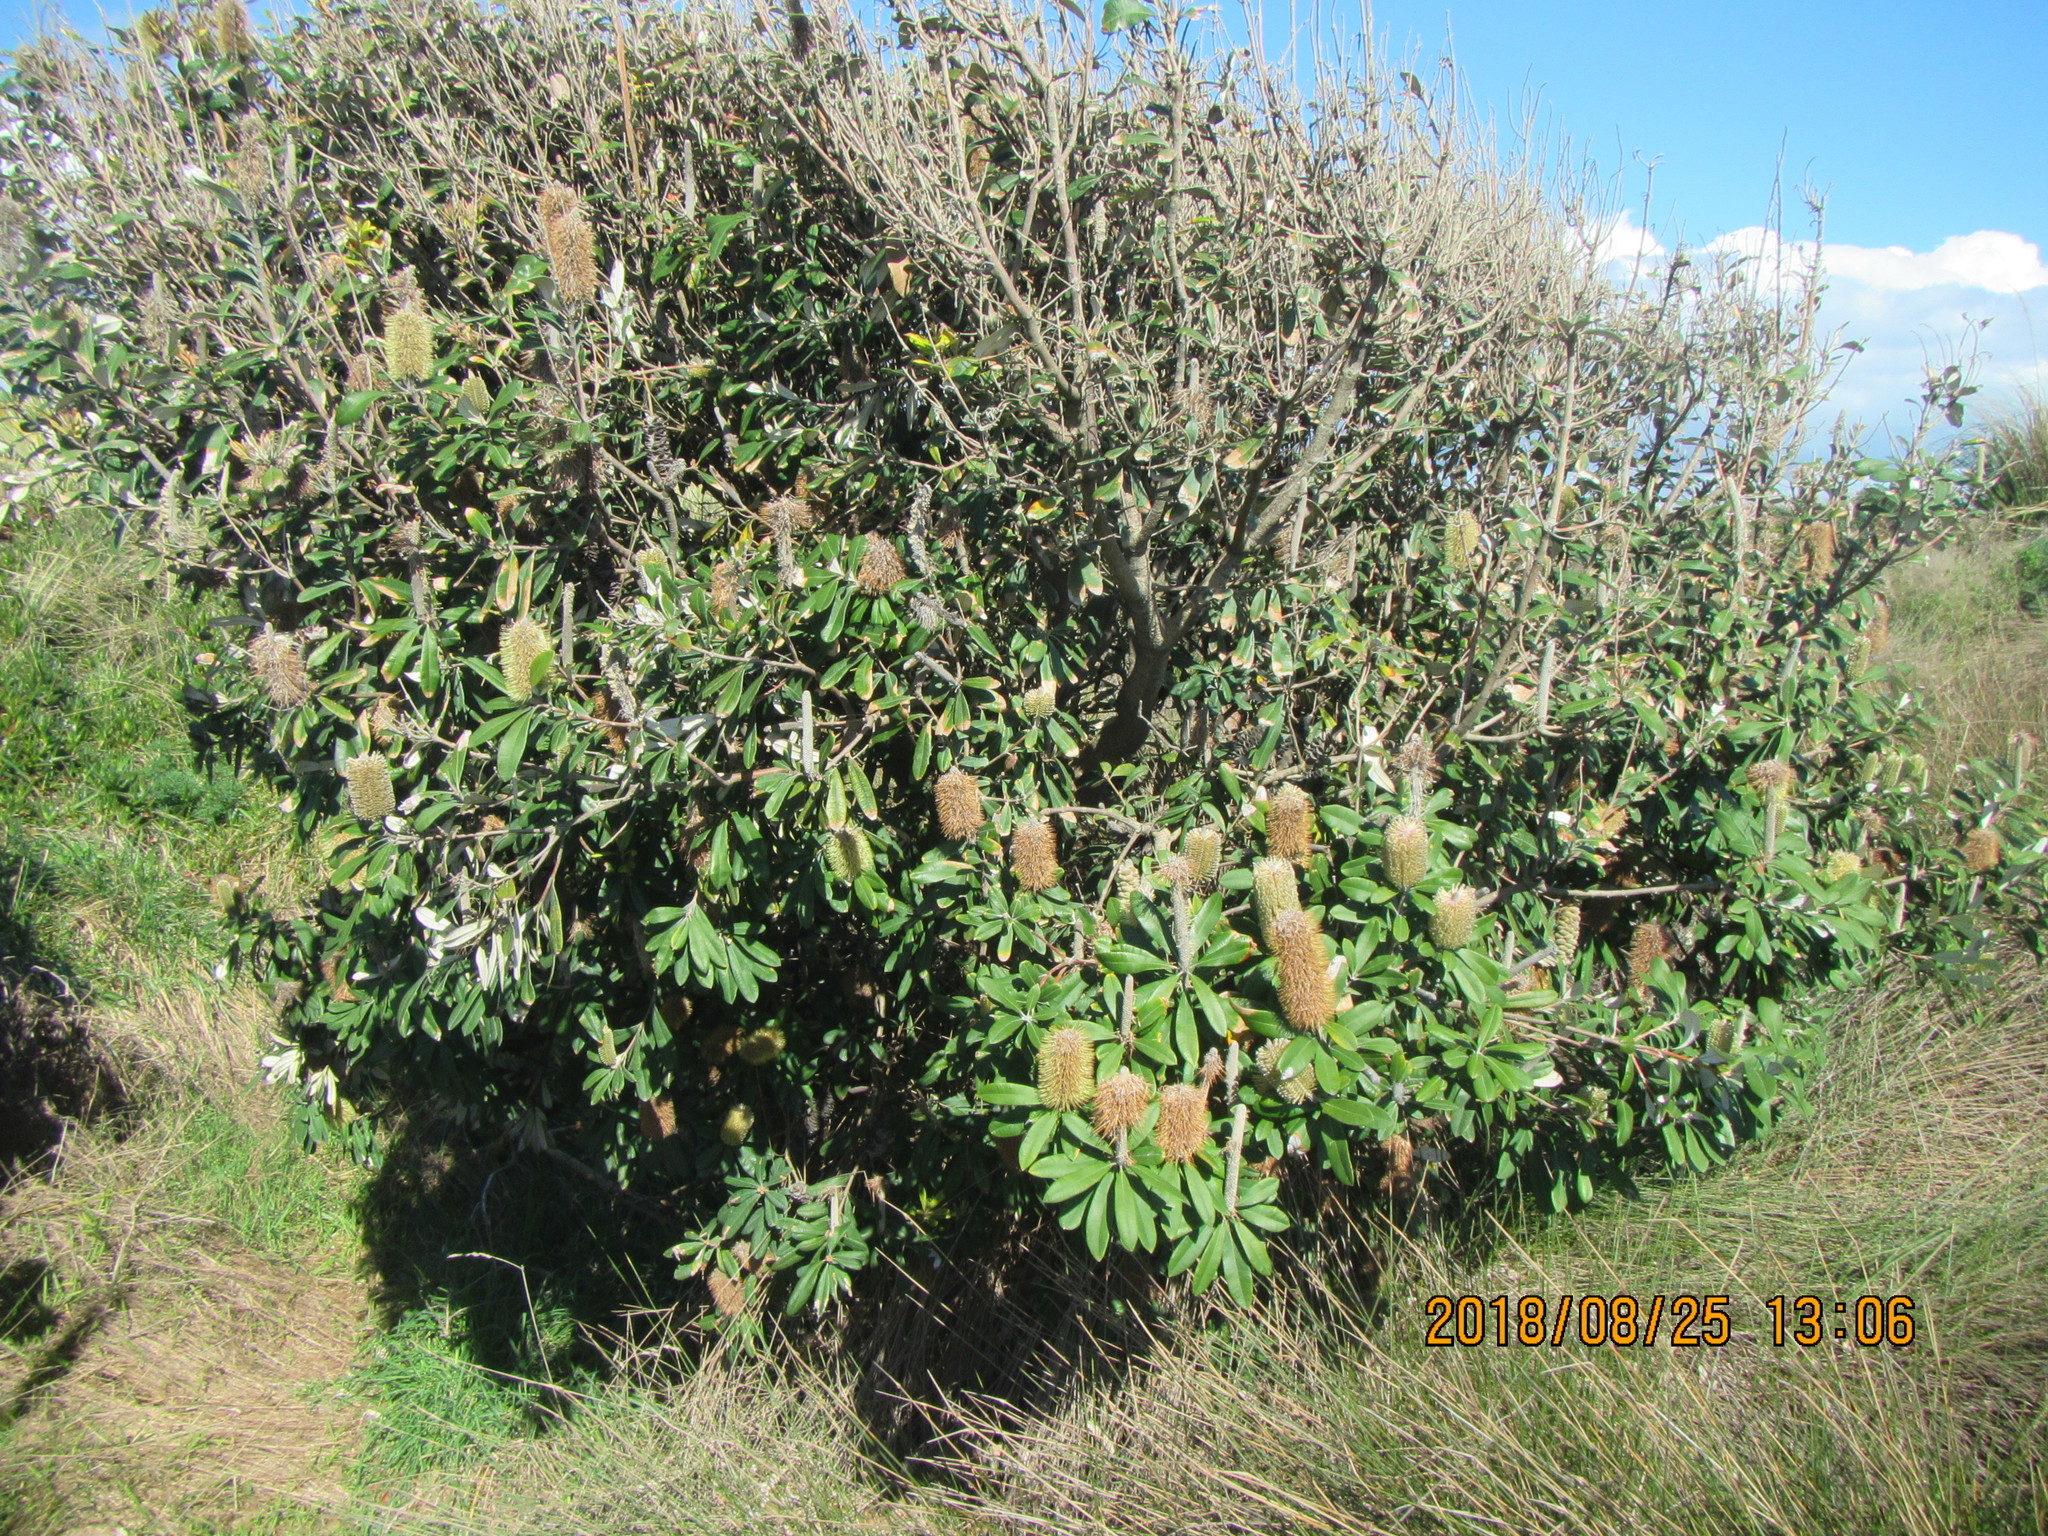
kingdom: Plantae
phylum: Tracheophyta
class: Magnoliopsida
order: Proteales
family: Proteaceae
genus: Banksia
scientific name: Banksia integrifolia
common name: White-honeysuckle
